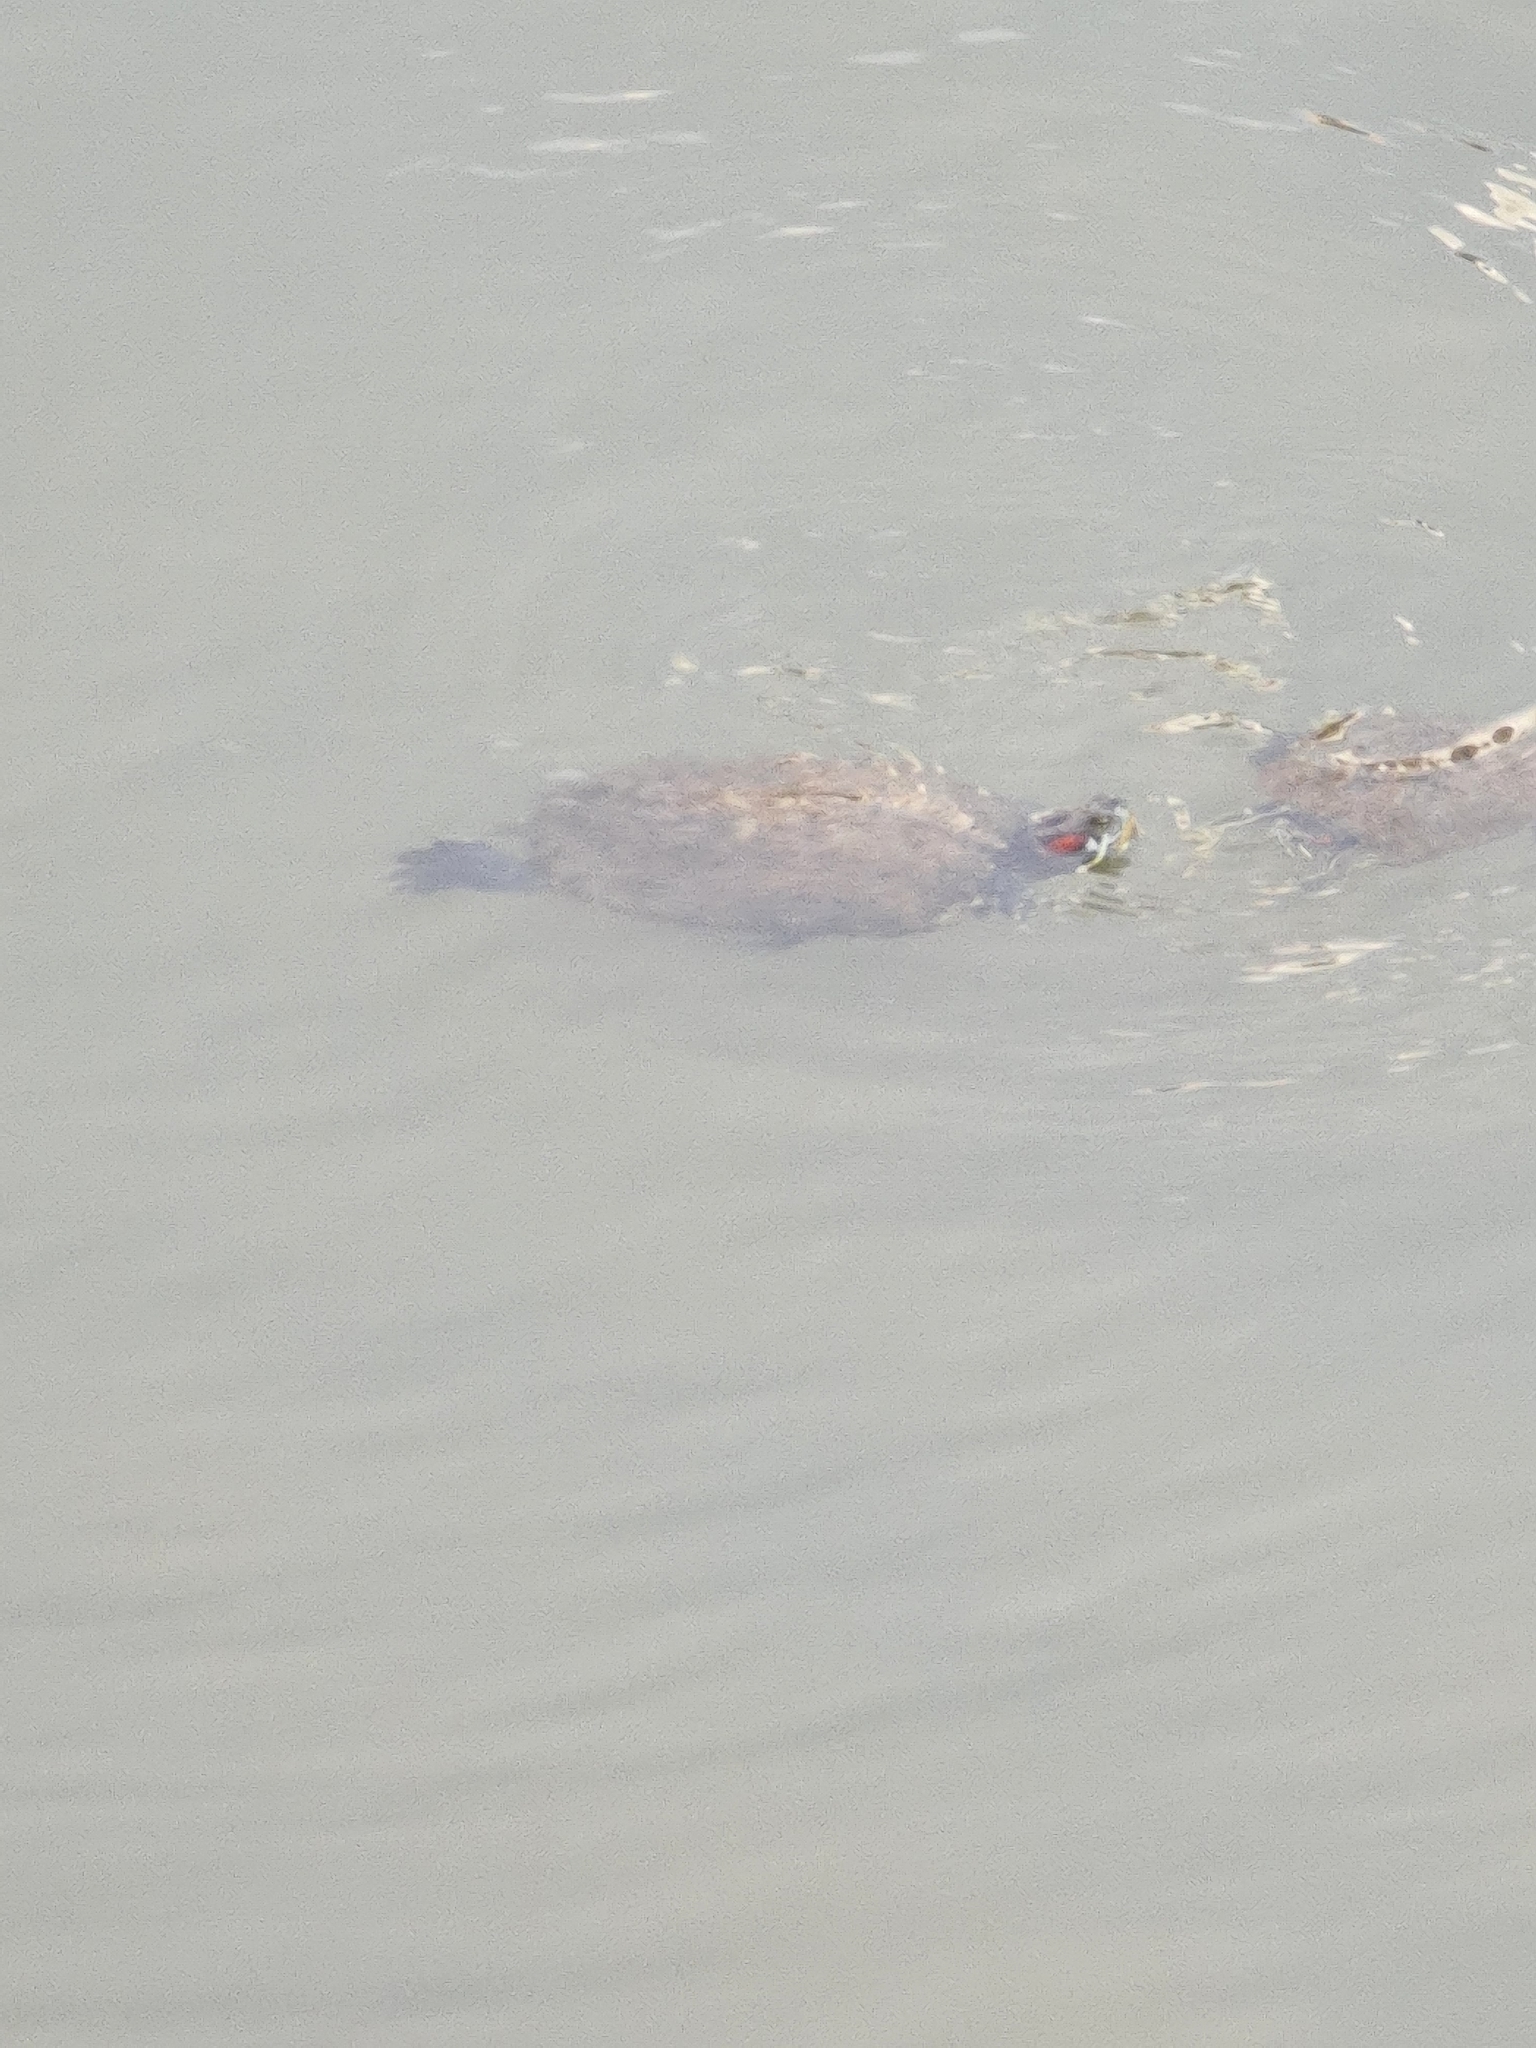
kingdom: Animalia
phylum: Chordata
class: Testudines
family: Emydidae
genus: Trachemys
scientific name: Trachemys scripta
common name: Slider
